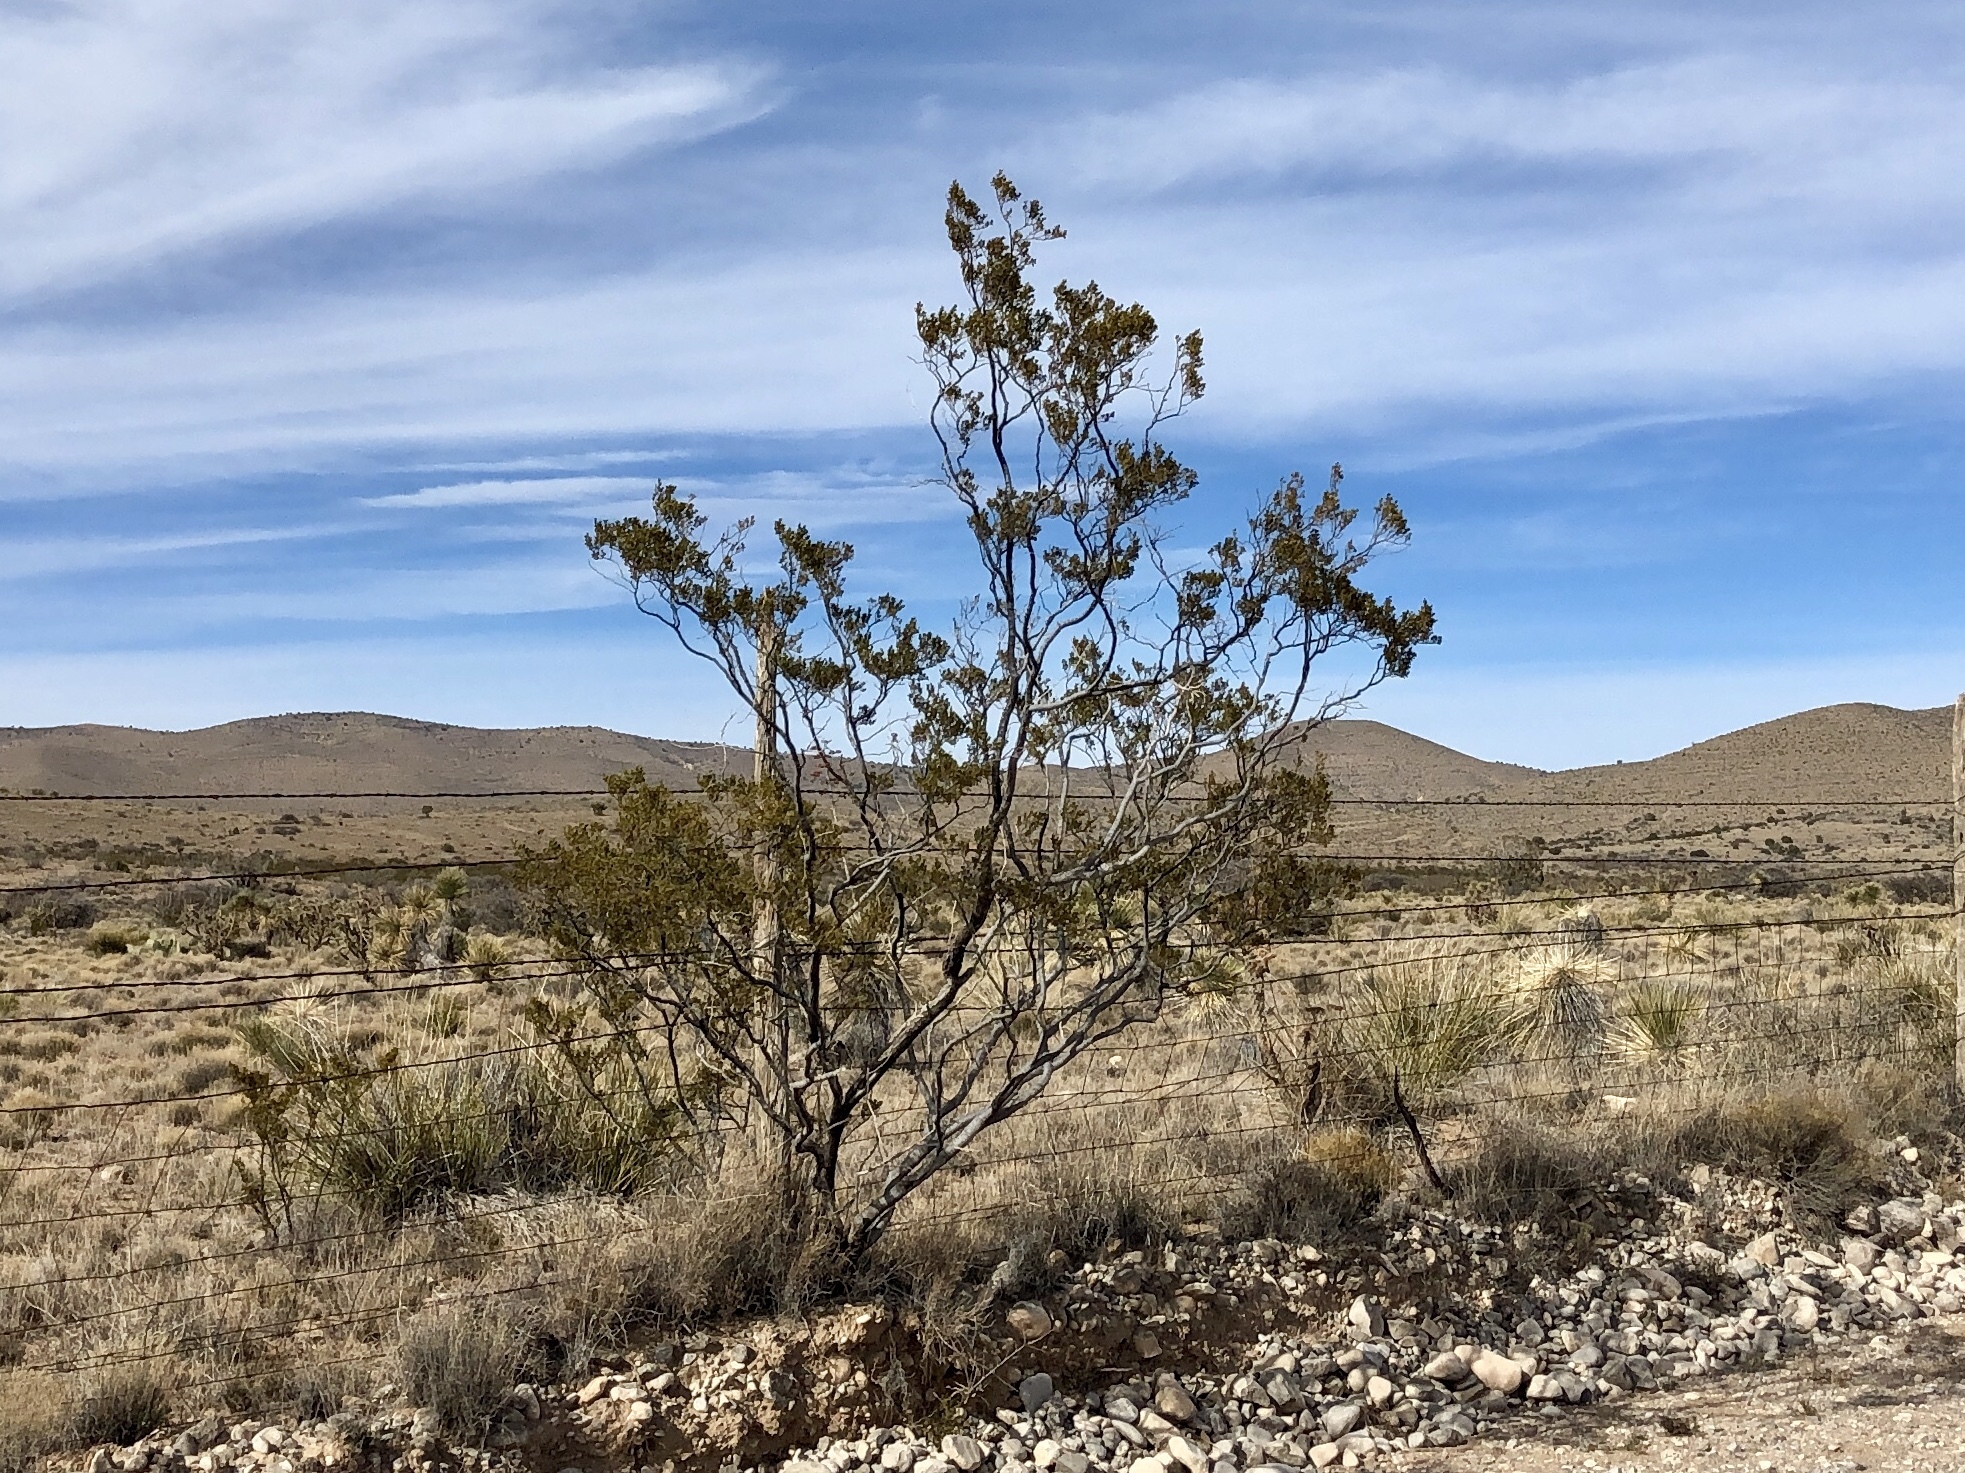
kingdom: Plantae
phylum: Tracheophyta
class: Magnoliopsida
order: Zygophyllales
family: Zygophyllaceae
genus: Larrea
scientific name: Larrea tridentata
